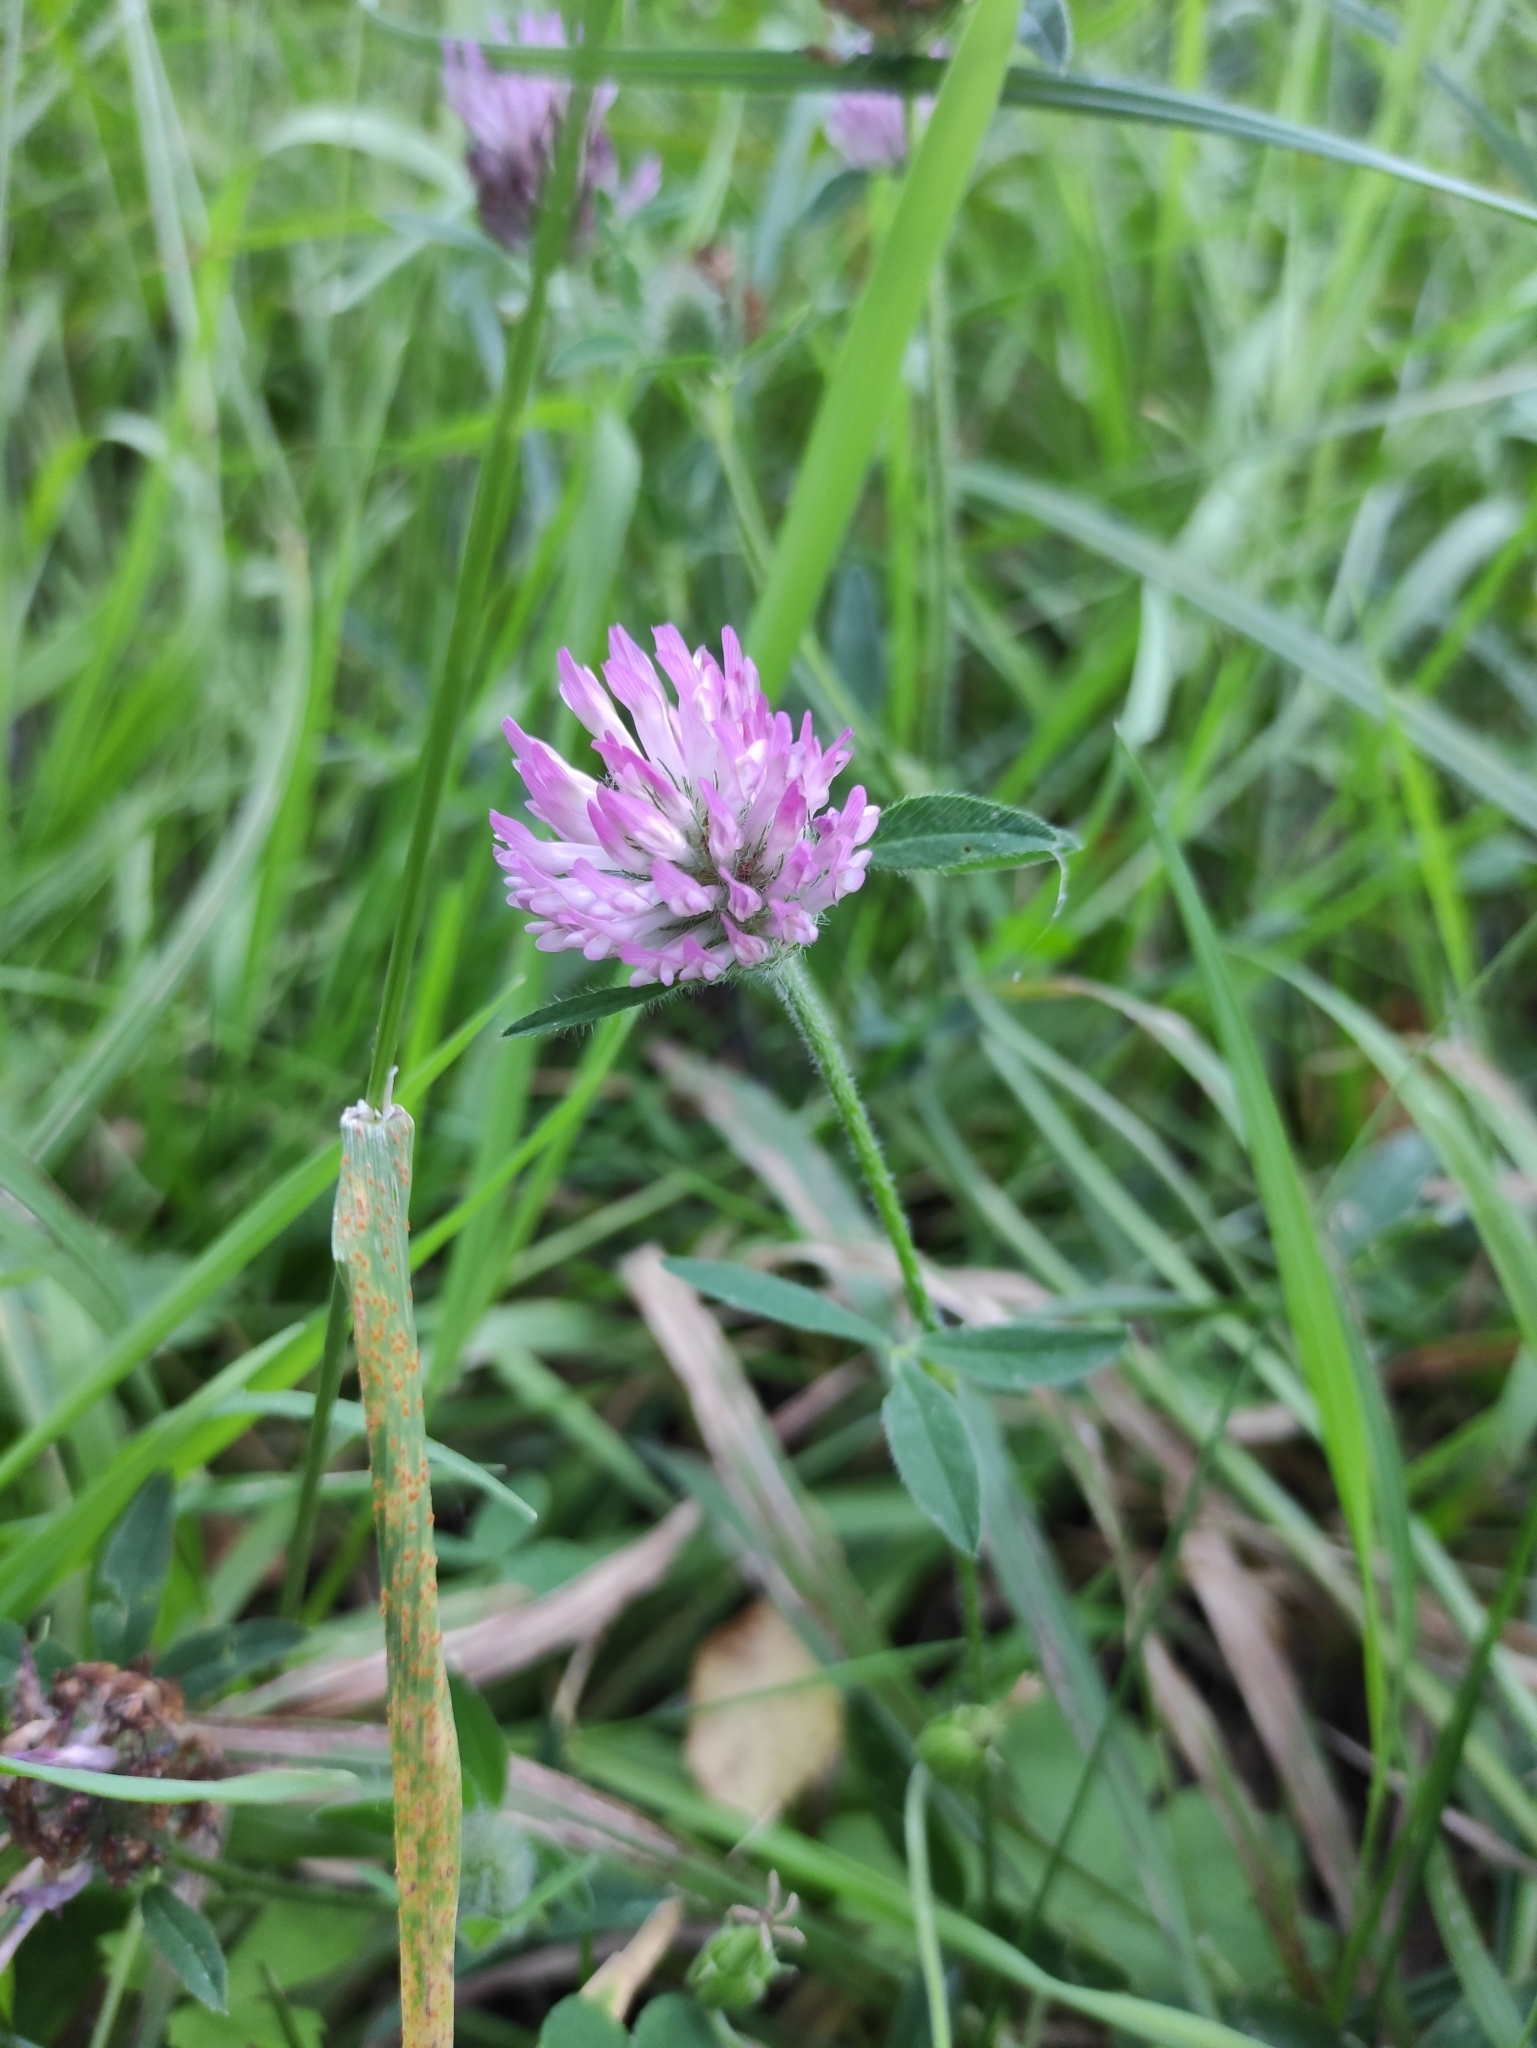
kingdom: Plantae
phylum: Tracheophyta
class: Magnoliopsida
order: Fabales
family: Fabaceae
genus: Trifolium
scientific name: Trifolium pratense
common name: Red clover
